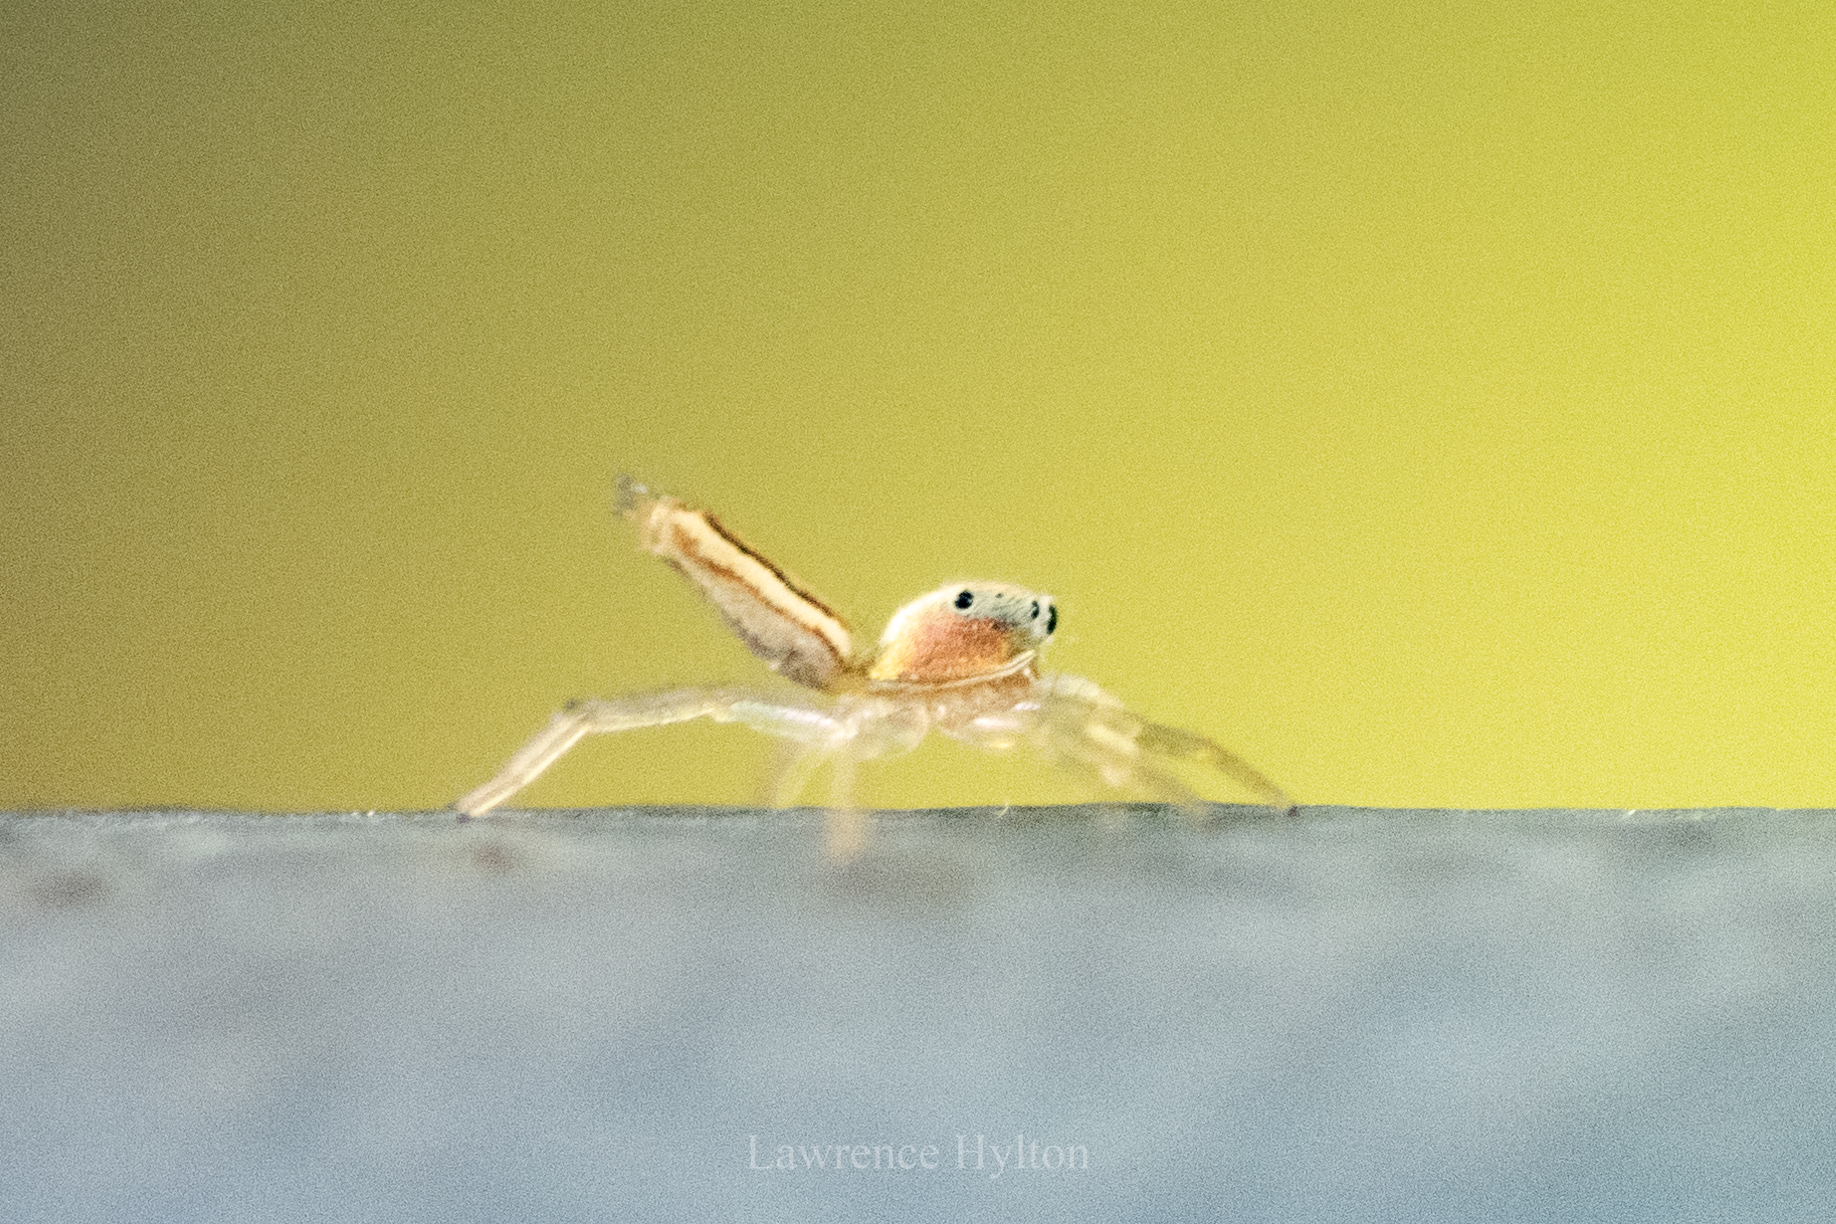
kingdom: Animalia
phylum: Arthropoda
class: Arachnida
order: Araneae
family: Salticidae
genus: Cosmophasis
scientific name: Cosmophasis lami
